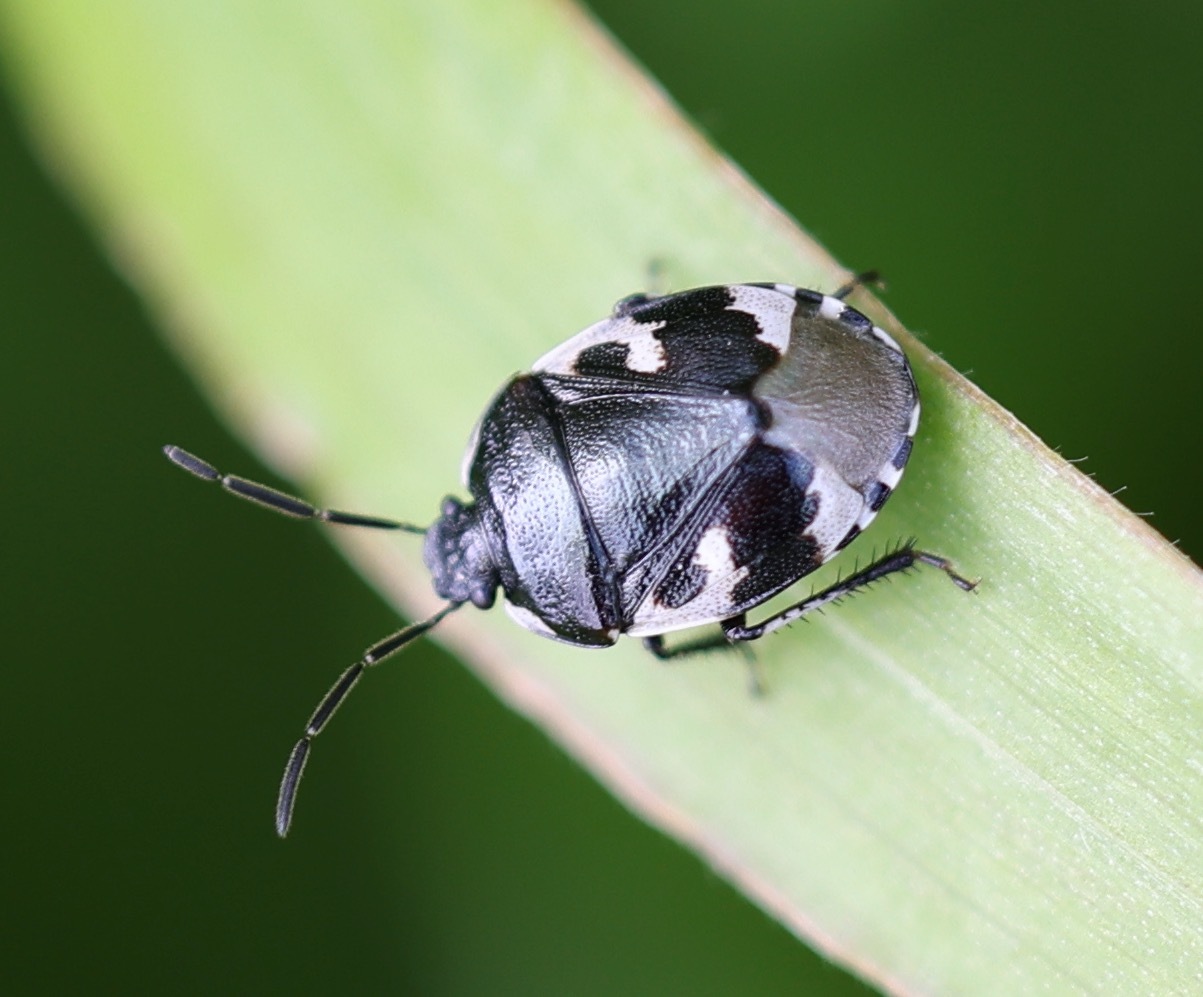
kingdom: Animalia
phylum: Arthropoda
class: Insecta
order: Hemiptera
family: Cydnidae
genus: Tritomegas
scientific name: Tritomegas bicolor
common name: Pied shieldbug
